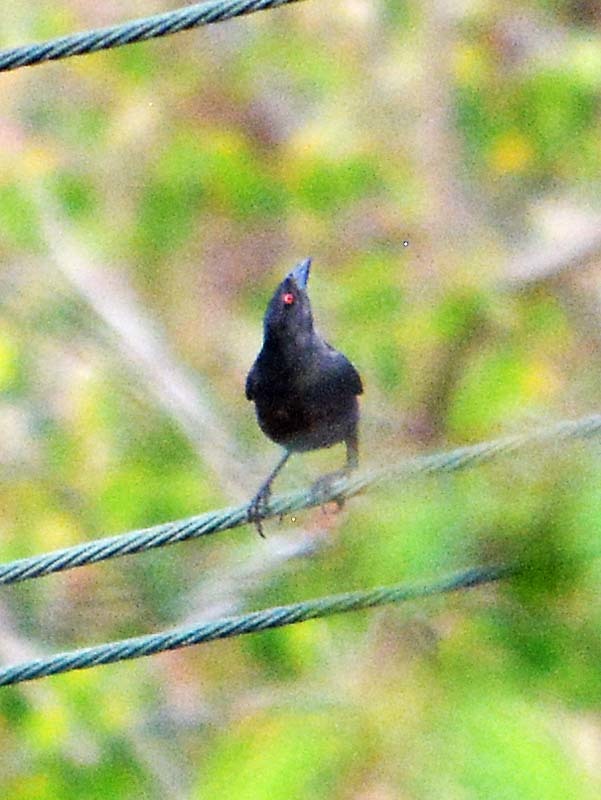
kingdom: Animalia
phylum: Chordata
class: Aves
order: Passeriformes
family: Icteridae
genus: Molothrus
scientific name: Molothrus aeneus
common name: Bronzed cowbird
